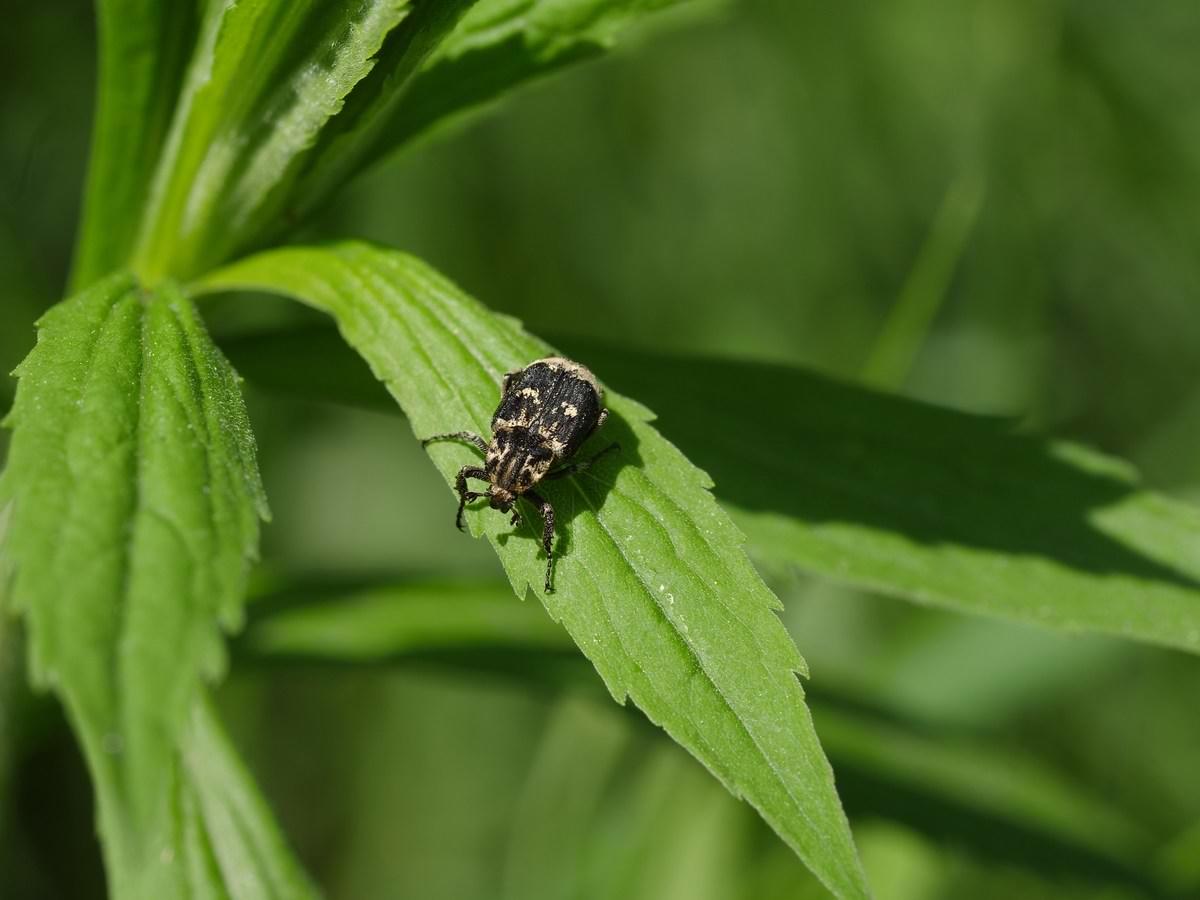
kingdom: Animalia
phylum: Arthropoda
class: Insecta
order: Coleoptera
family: Scarabaeidae
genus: Valgus
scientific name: Valgus hemipterus
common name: Bug flower chafer
